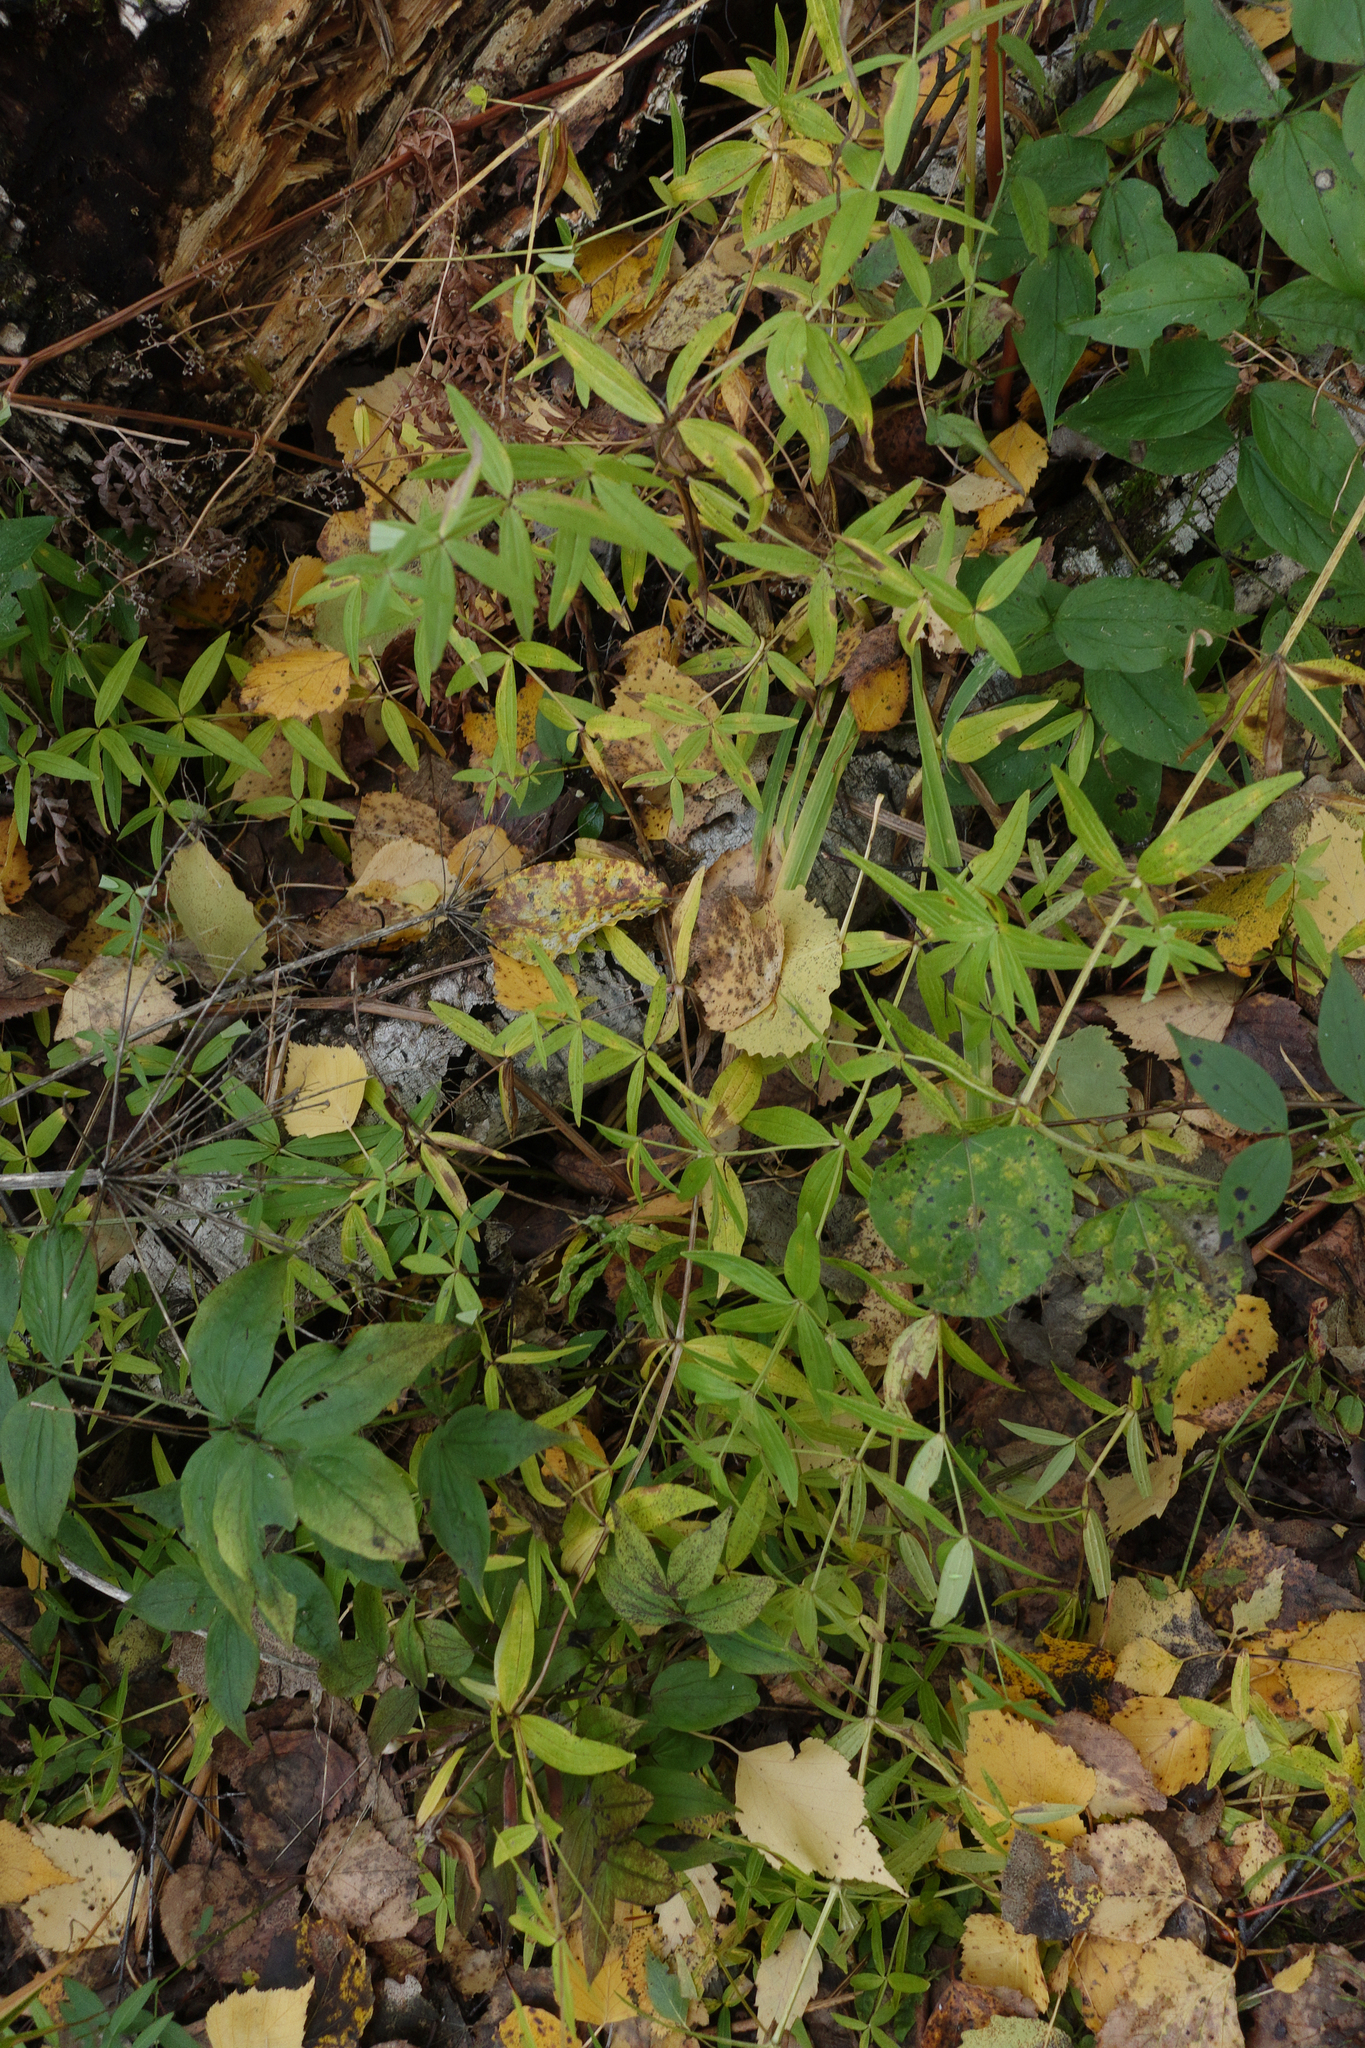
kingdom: Plantae
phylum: Tracheophyta
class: Magnoliopsida
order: Gentianales
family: Rubiaceae
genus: Galium
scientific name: Galium boreale
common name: Northern bedstraw
